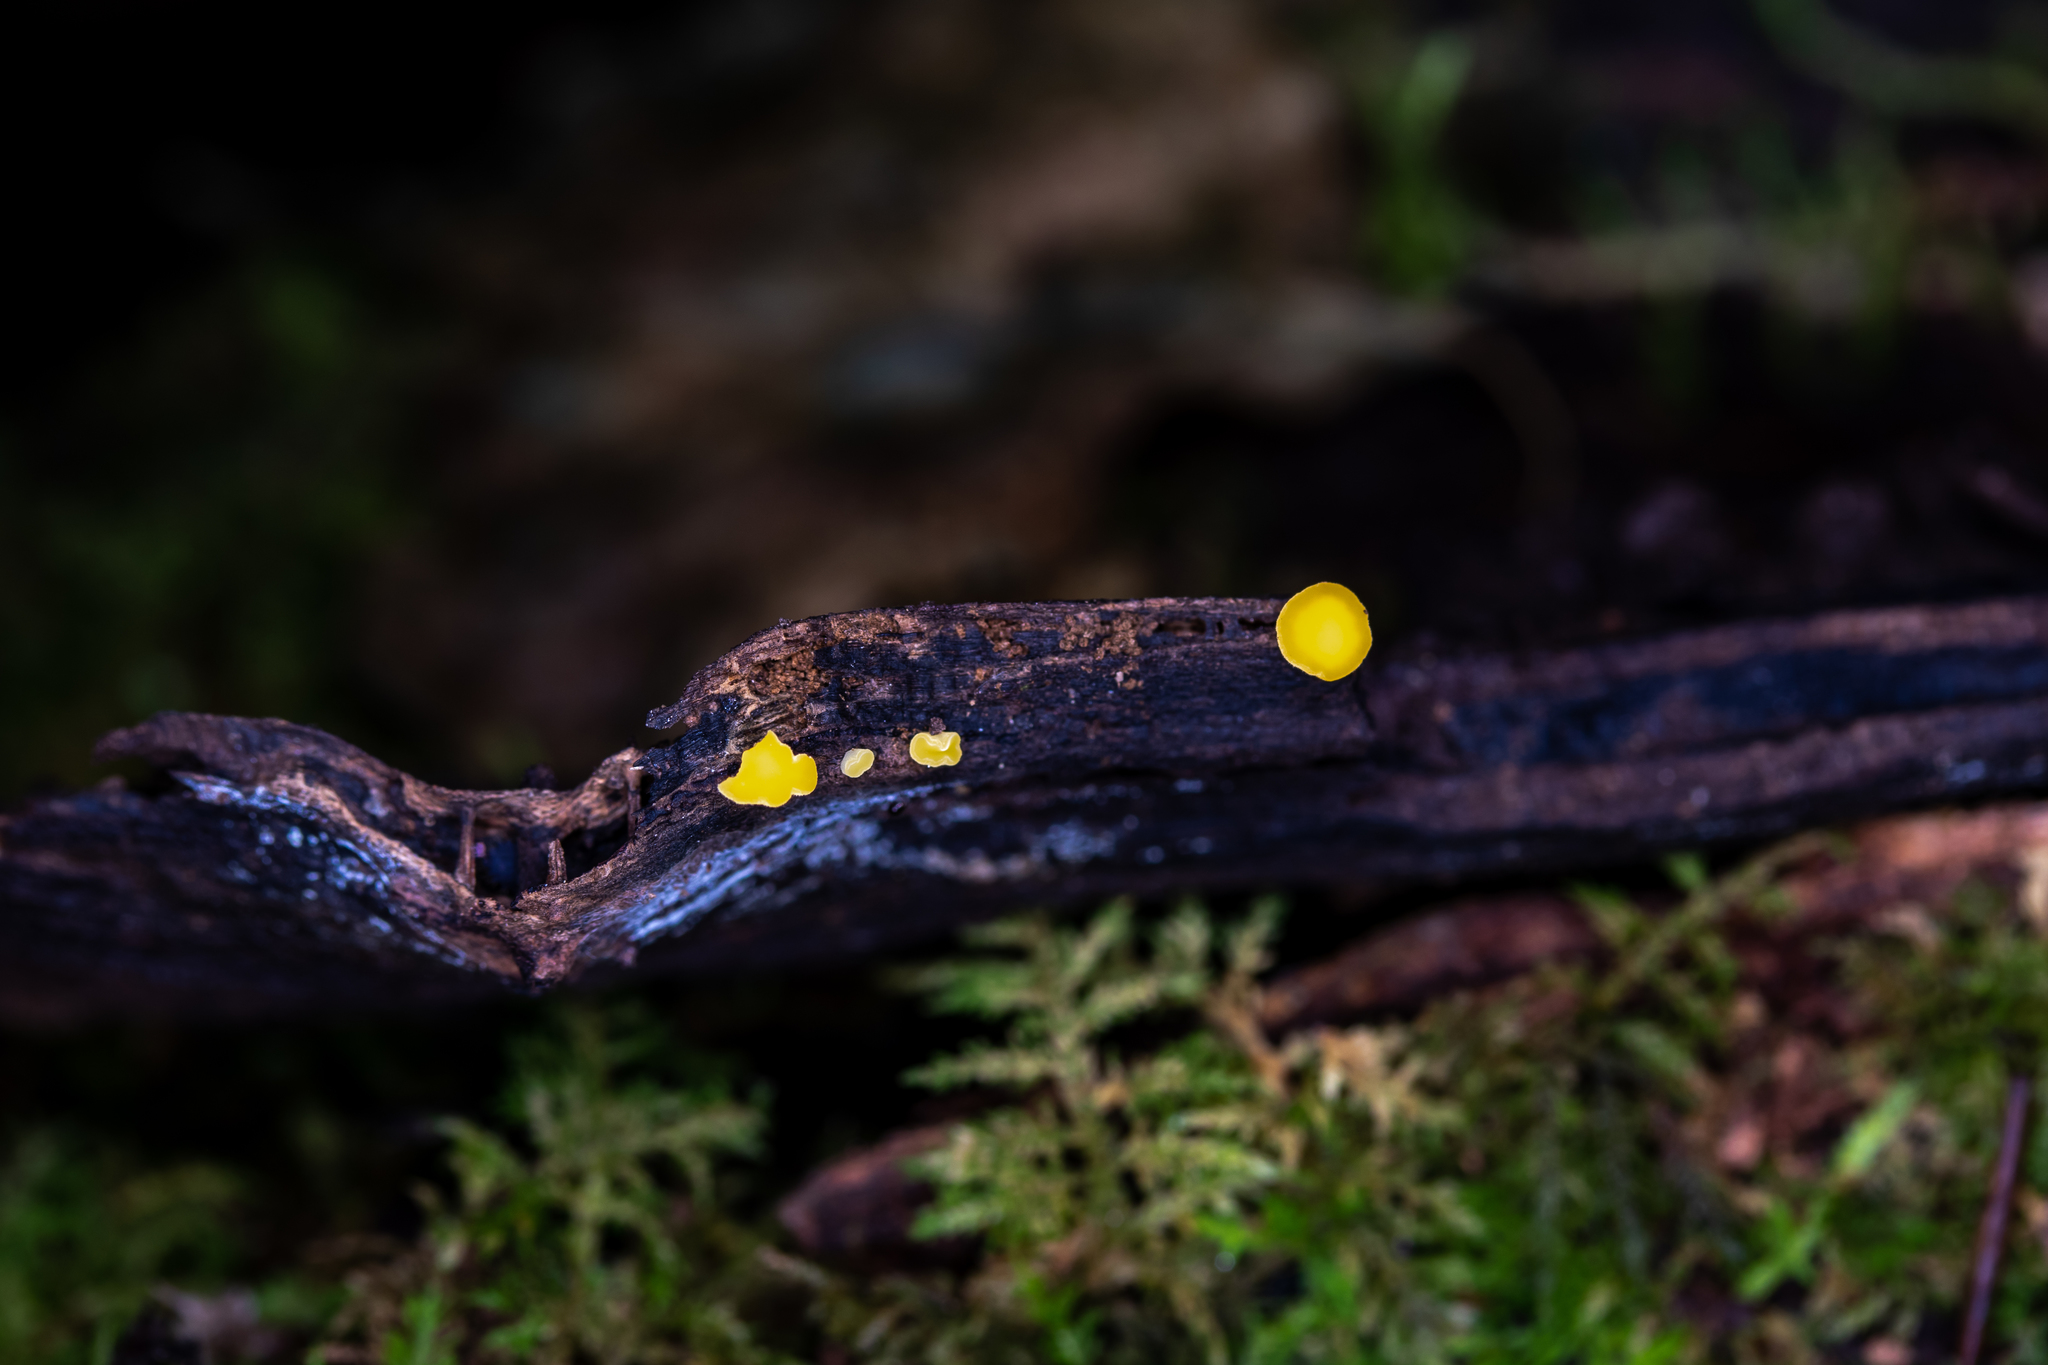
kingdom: Fungi
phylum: Ascomycota
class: Leotiomycetes
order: Helotiales
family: Pezizellaceae
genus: Calycina
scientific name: Calycina citrina
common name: Yellow fairy cups
